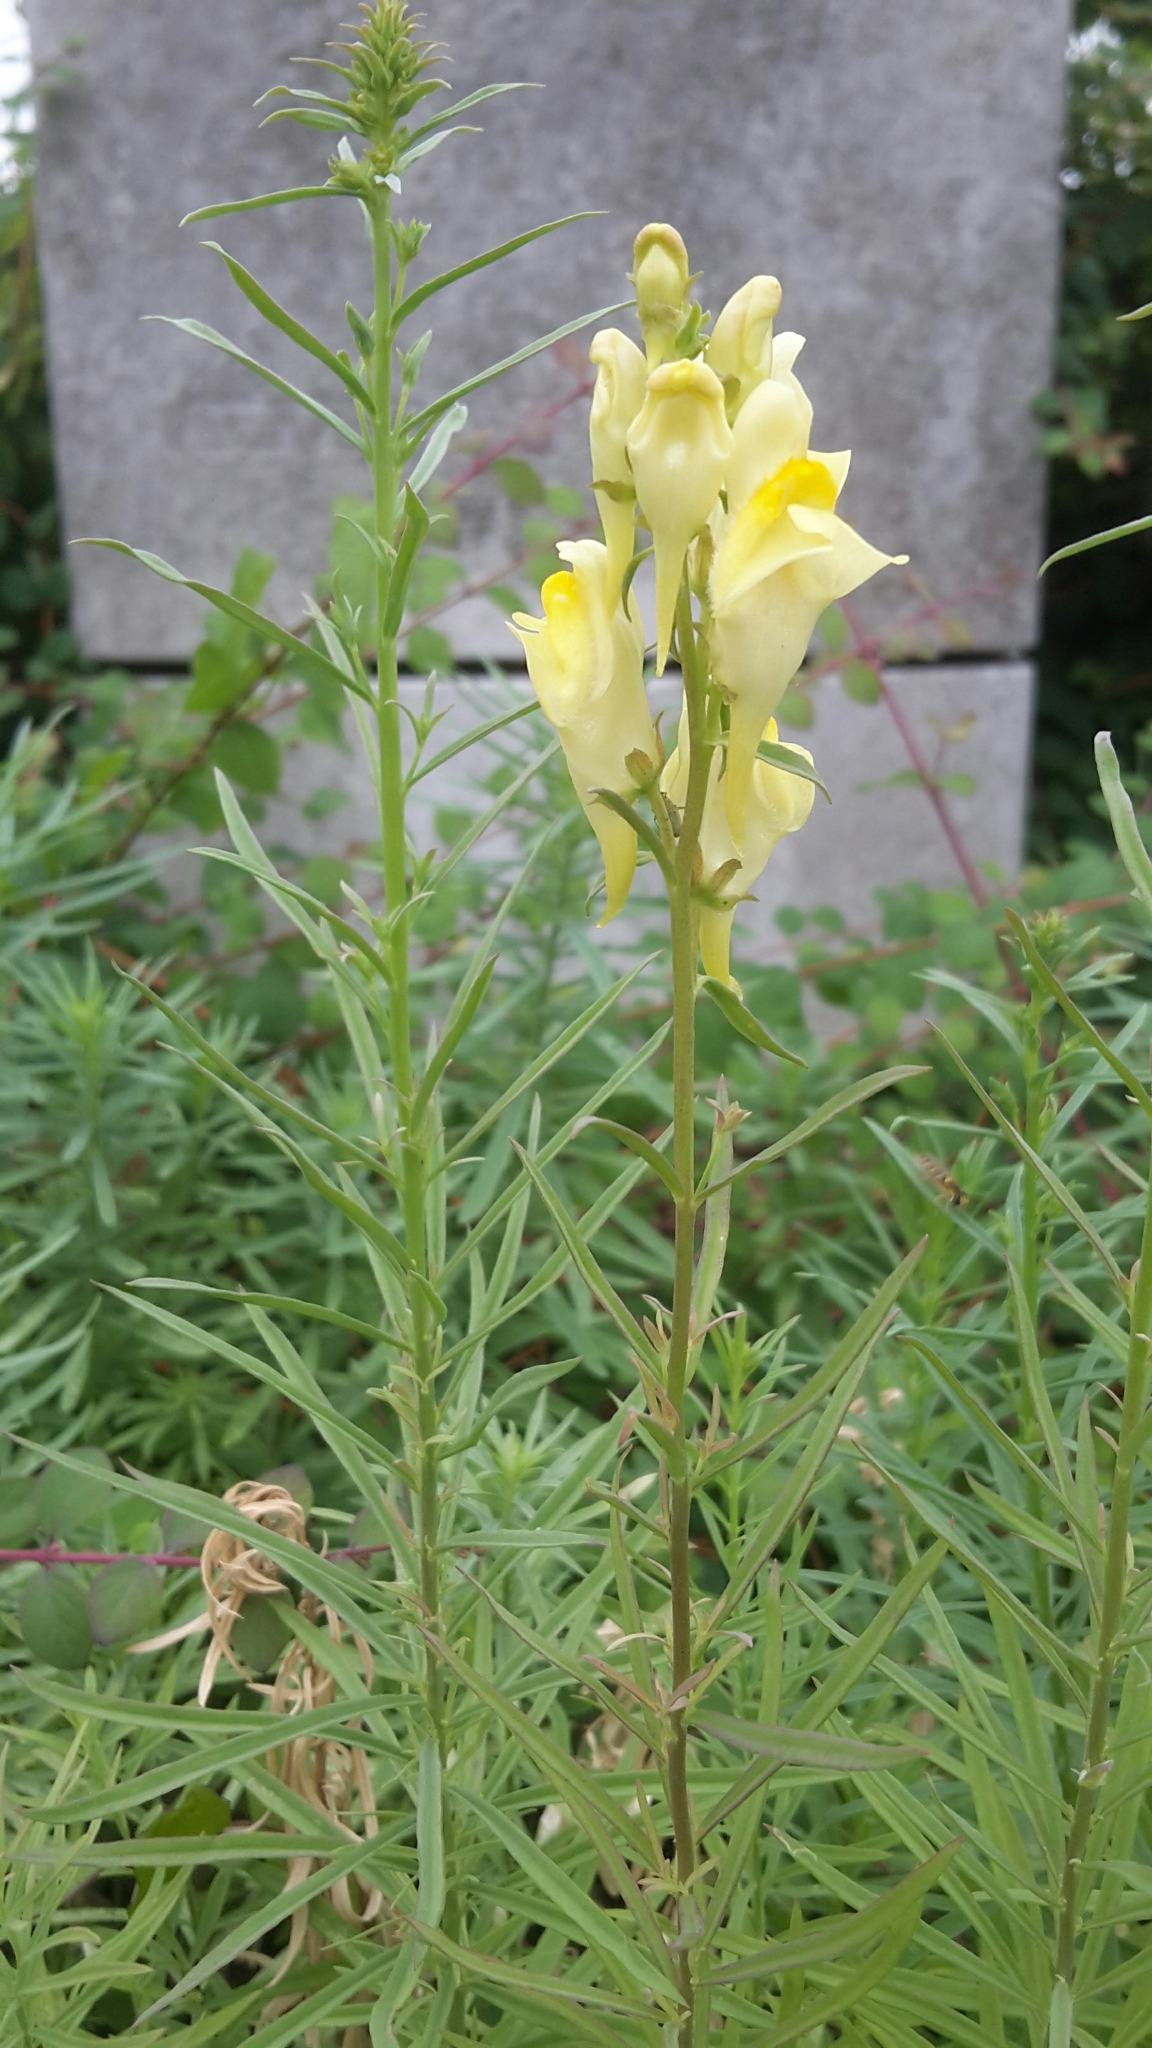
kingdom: Plantae
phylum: Tracheophyta
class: Magnoliopsida
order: Lamiales
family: Plantaginaceae
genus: Linaria
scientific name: Linaria vulgaris
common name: Butter and eggs
